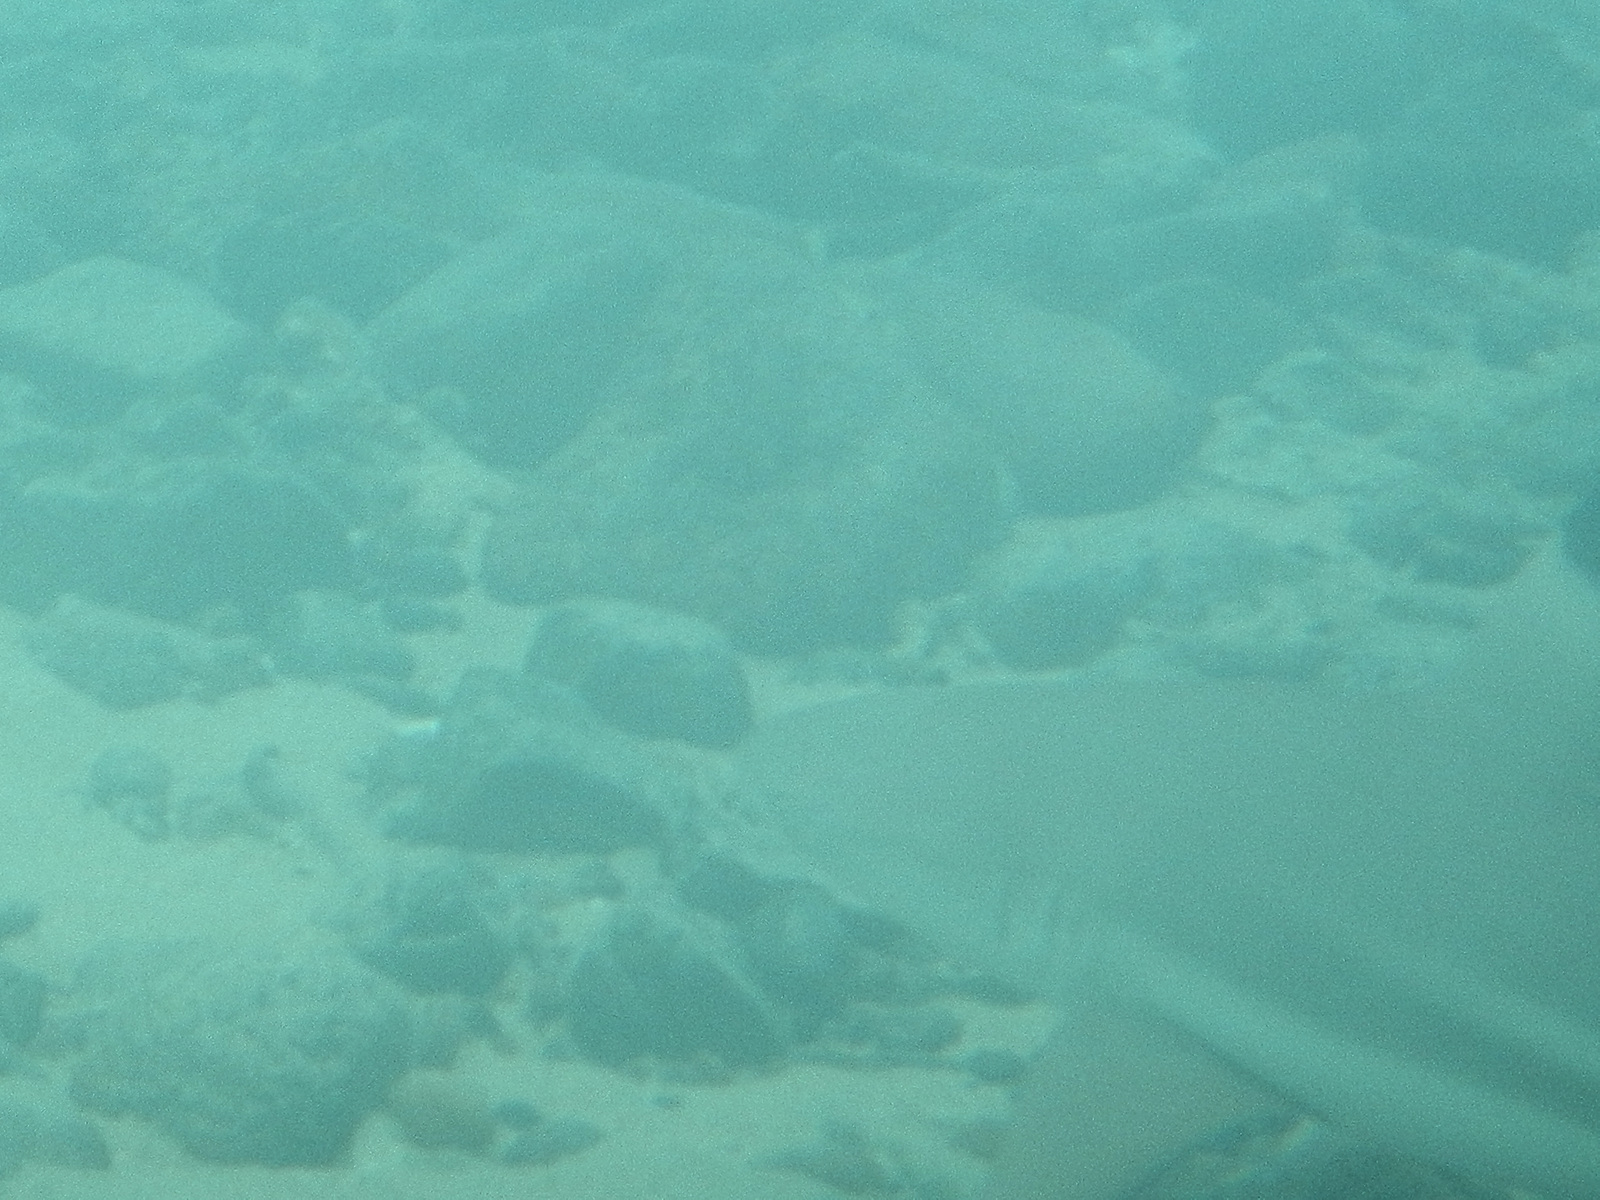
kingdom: Animalia
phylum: Chordata
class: Elasmobranchii
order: Carcharhiniformes
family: Carcharhinidae
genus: Carcharhinus
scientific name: Carcharhinus melanopterus
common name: Blacktip reef shark
